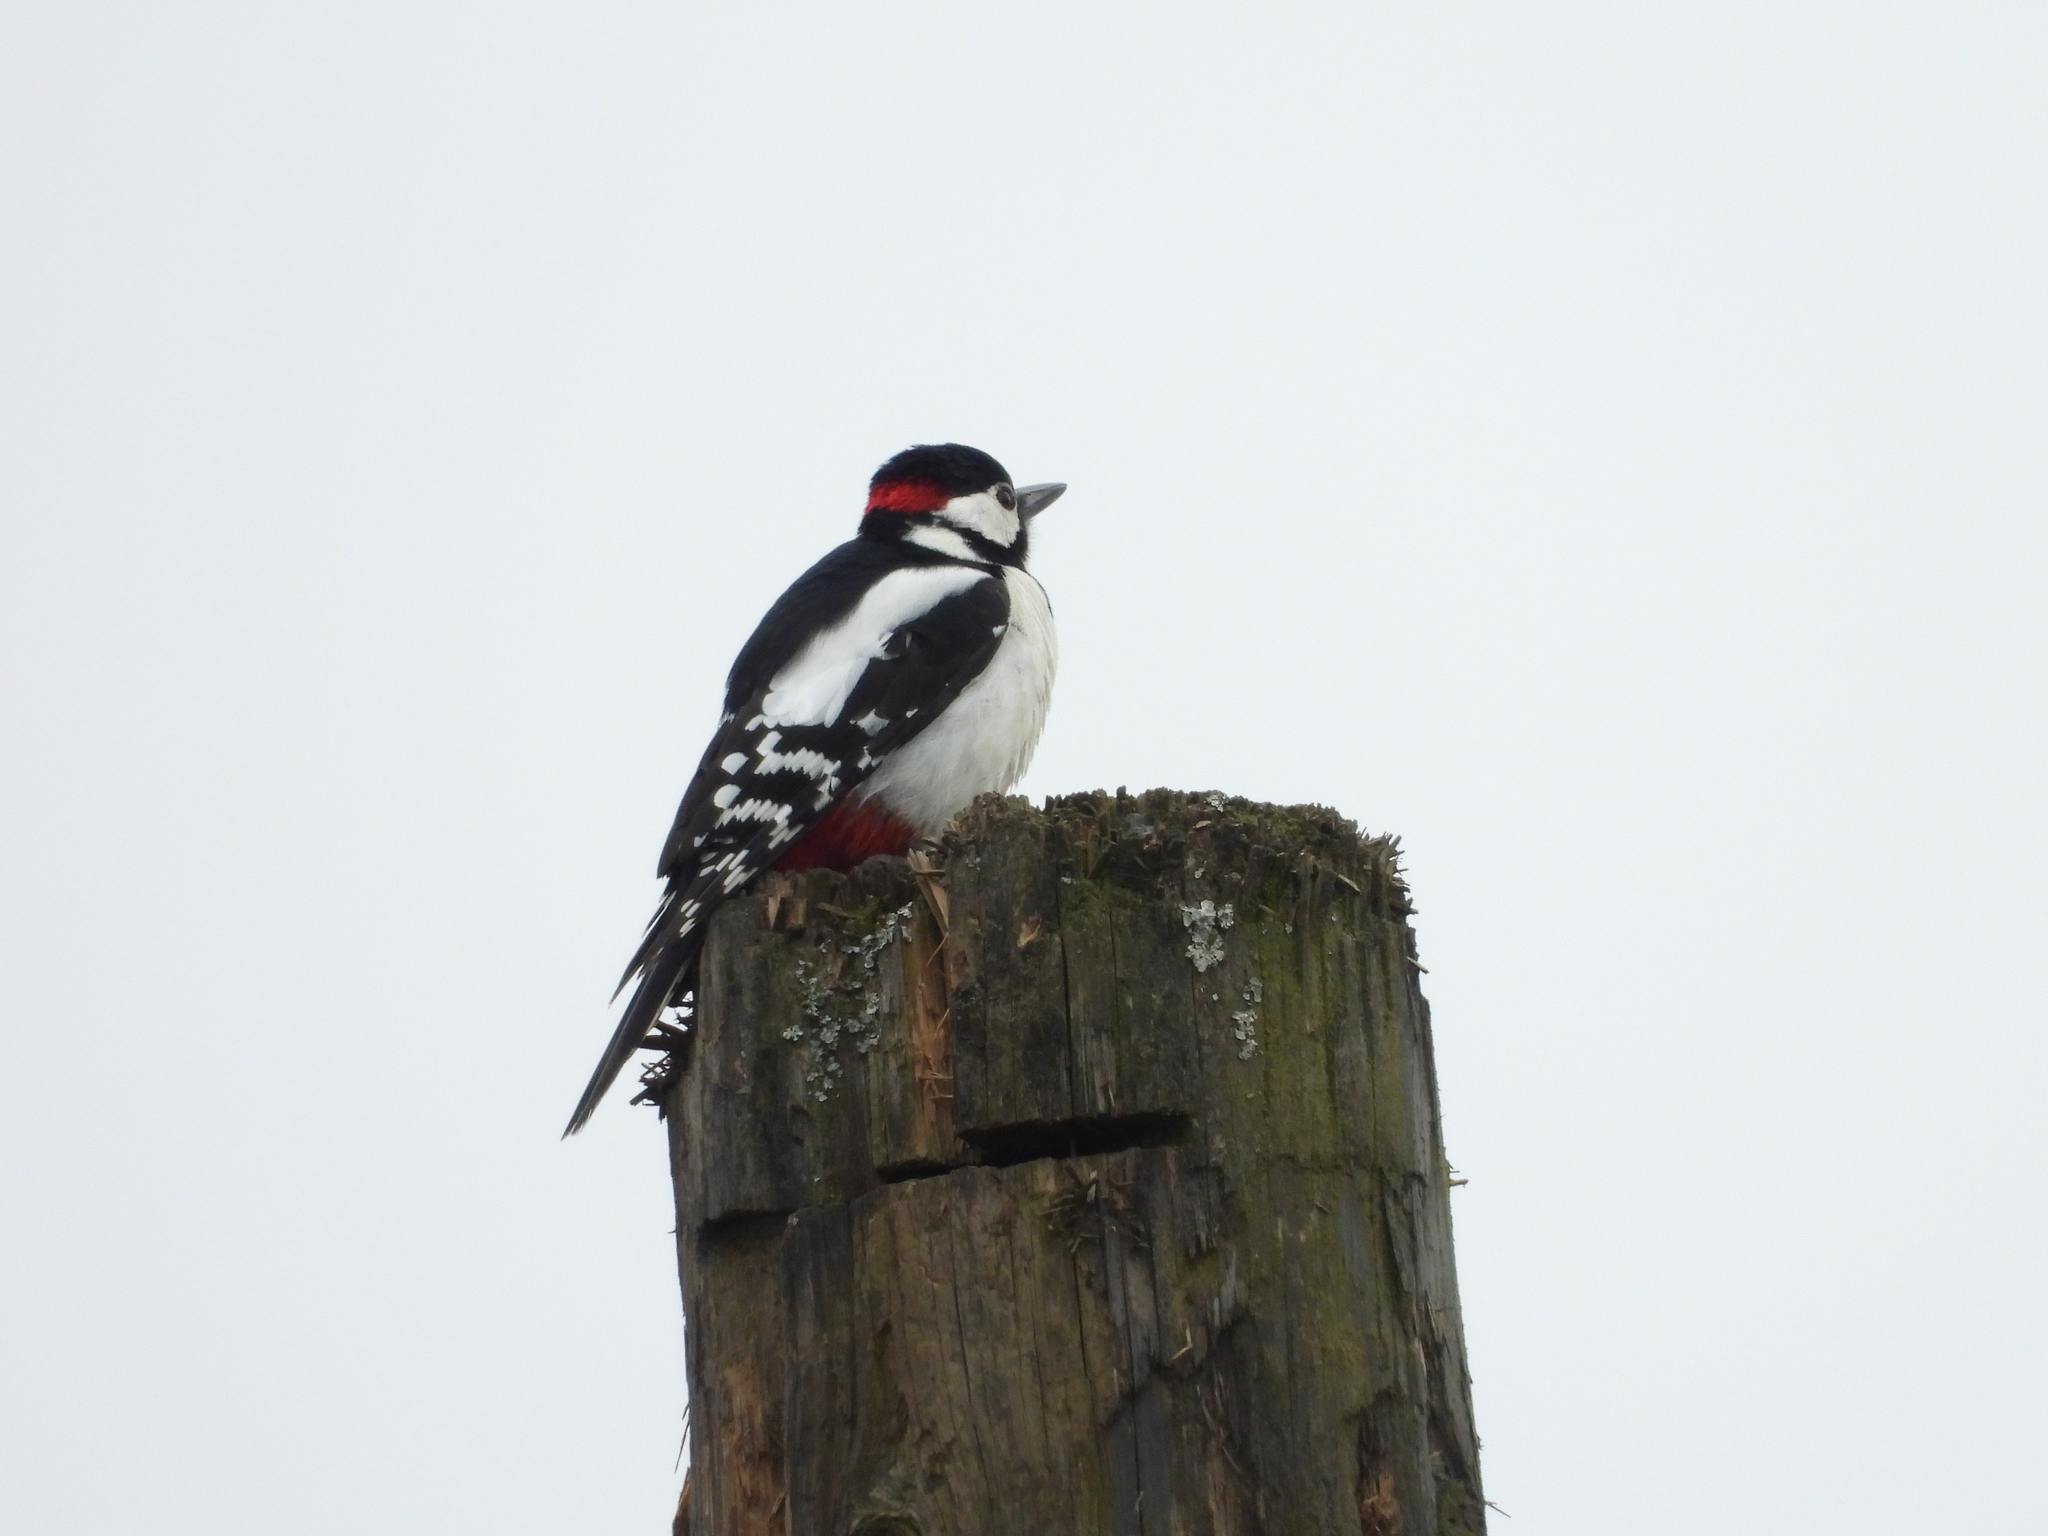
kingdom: Animalia
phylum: Chordata
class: Aves
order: Piciformes
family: Picidae
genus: Dendrocopos
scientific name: Dendrocopos major
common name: Great spotted woodpecker
